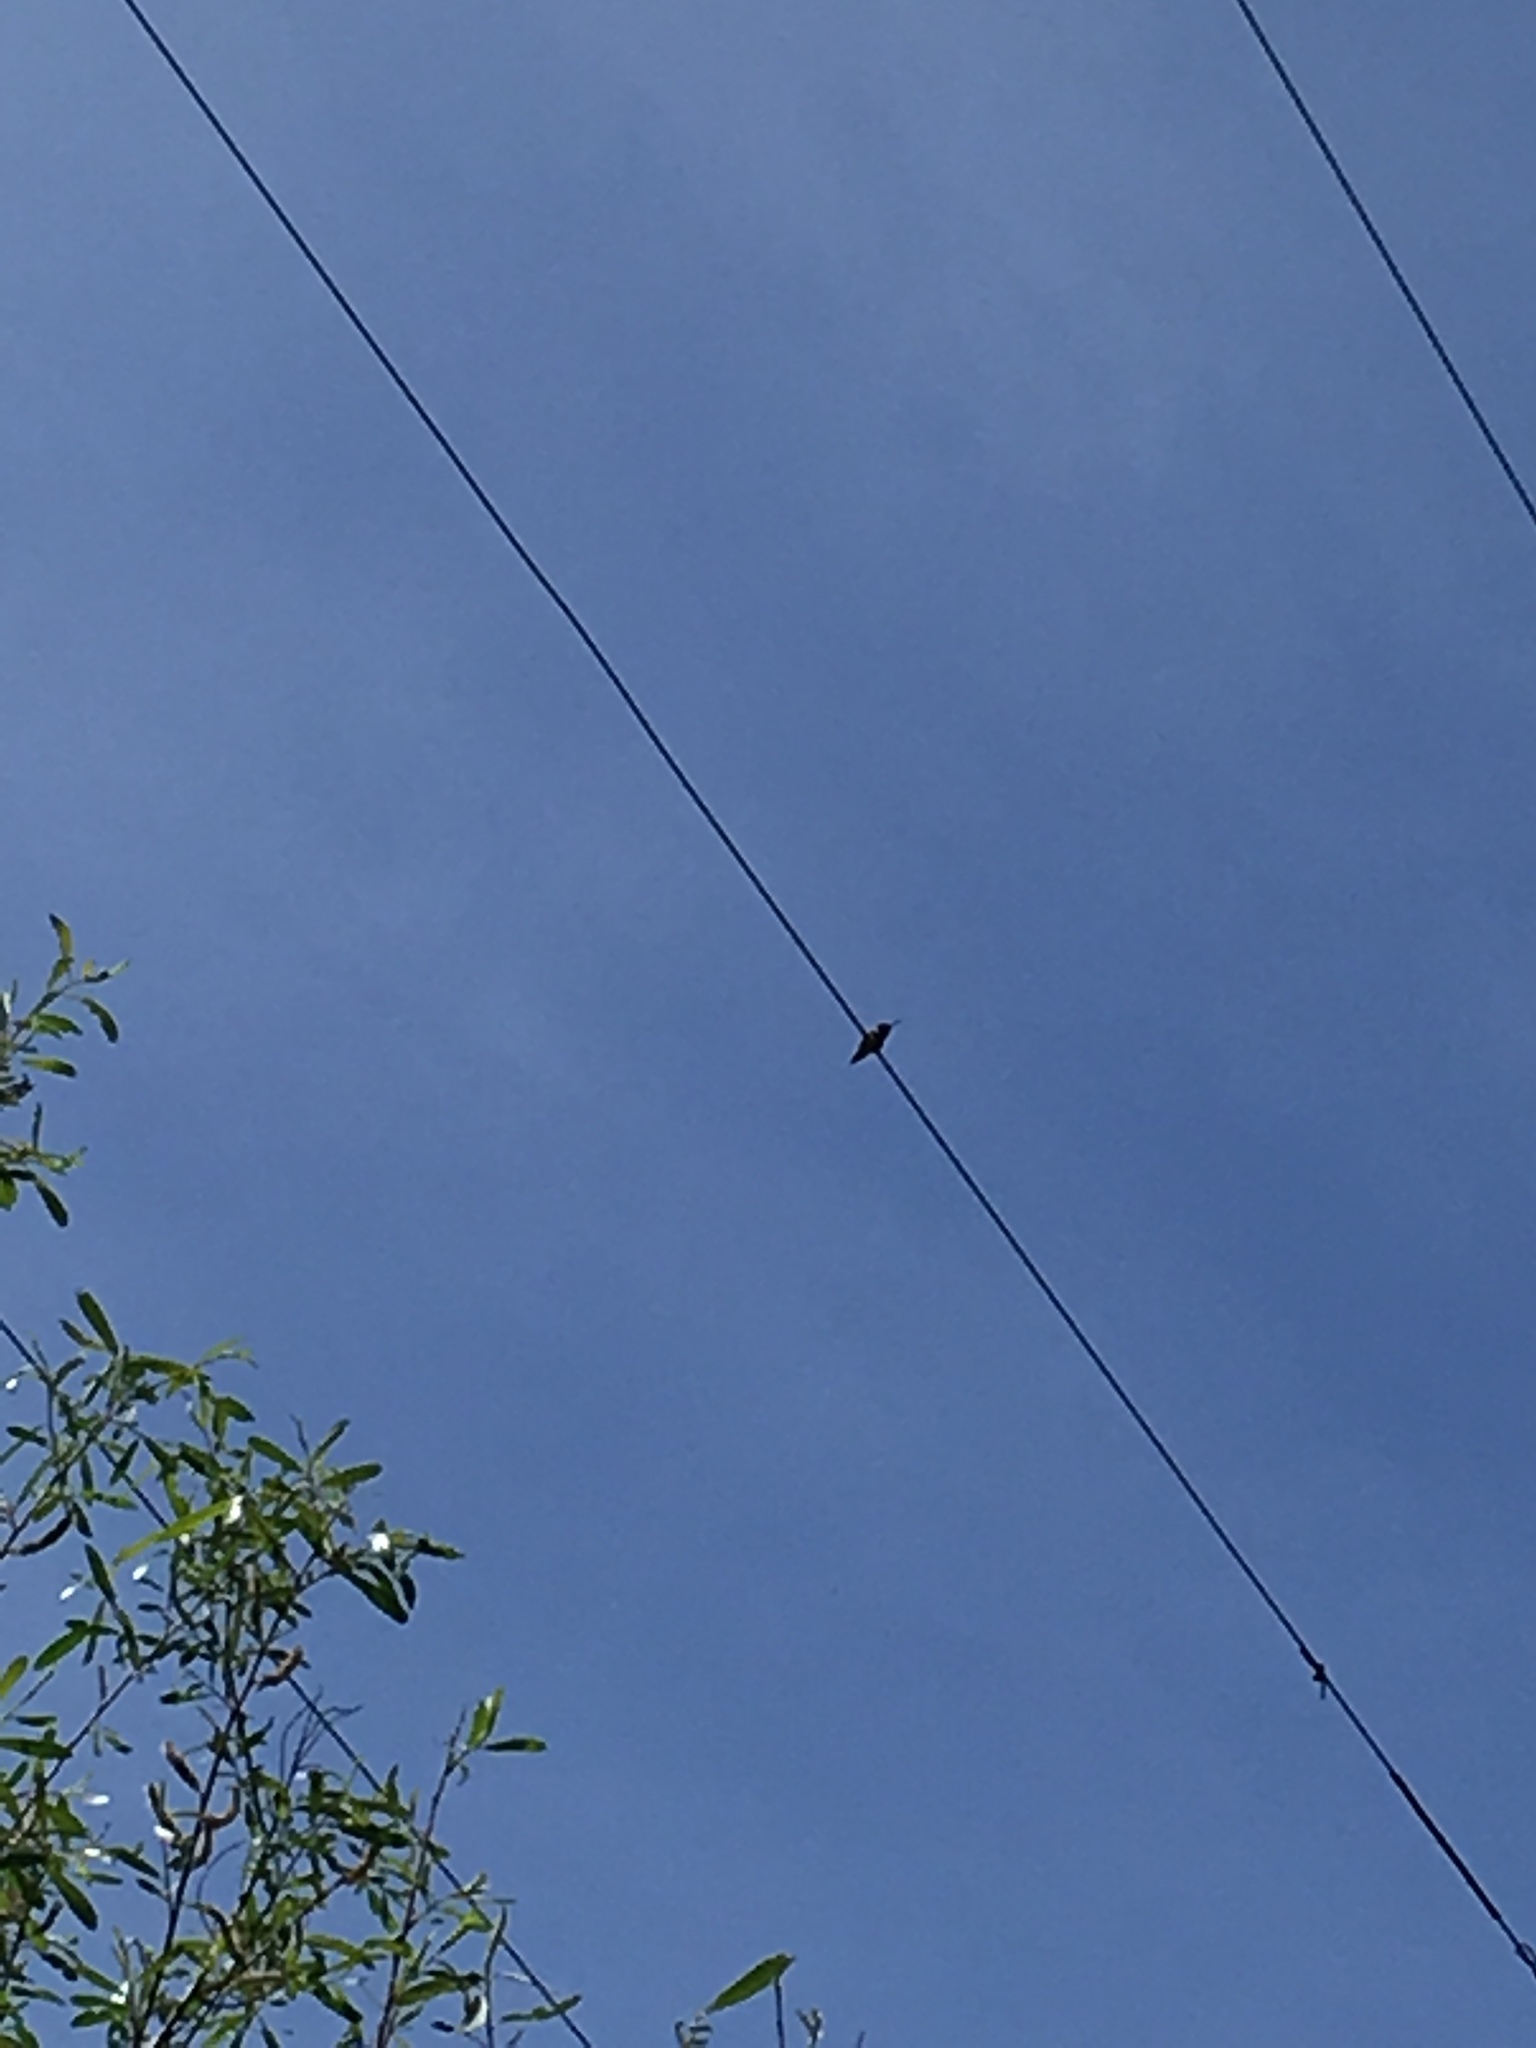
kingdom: Animalia
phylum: Chordata
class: Aves
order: Apodiformes
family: Trochilidae
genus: Calypte
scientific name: Calypte anna
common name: Anna's hummingbird
